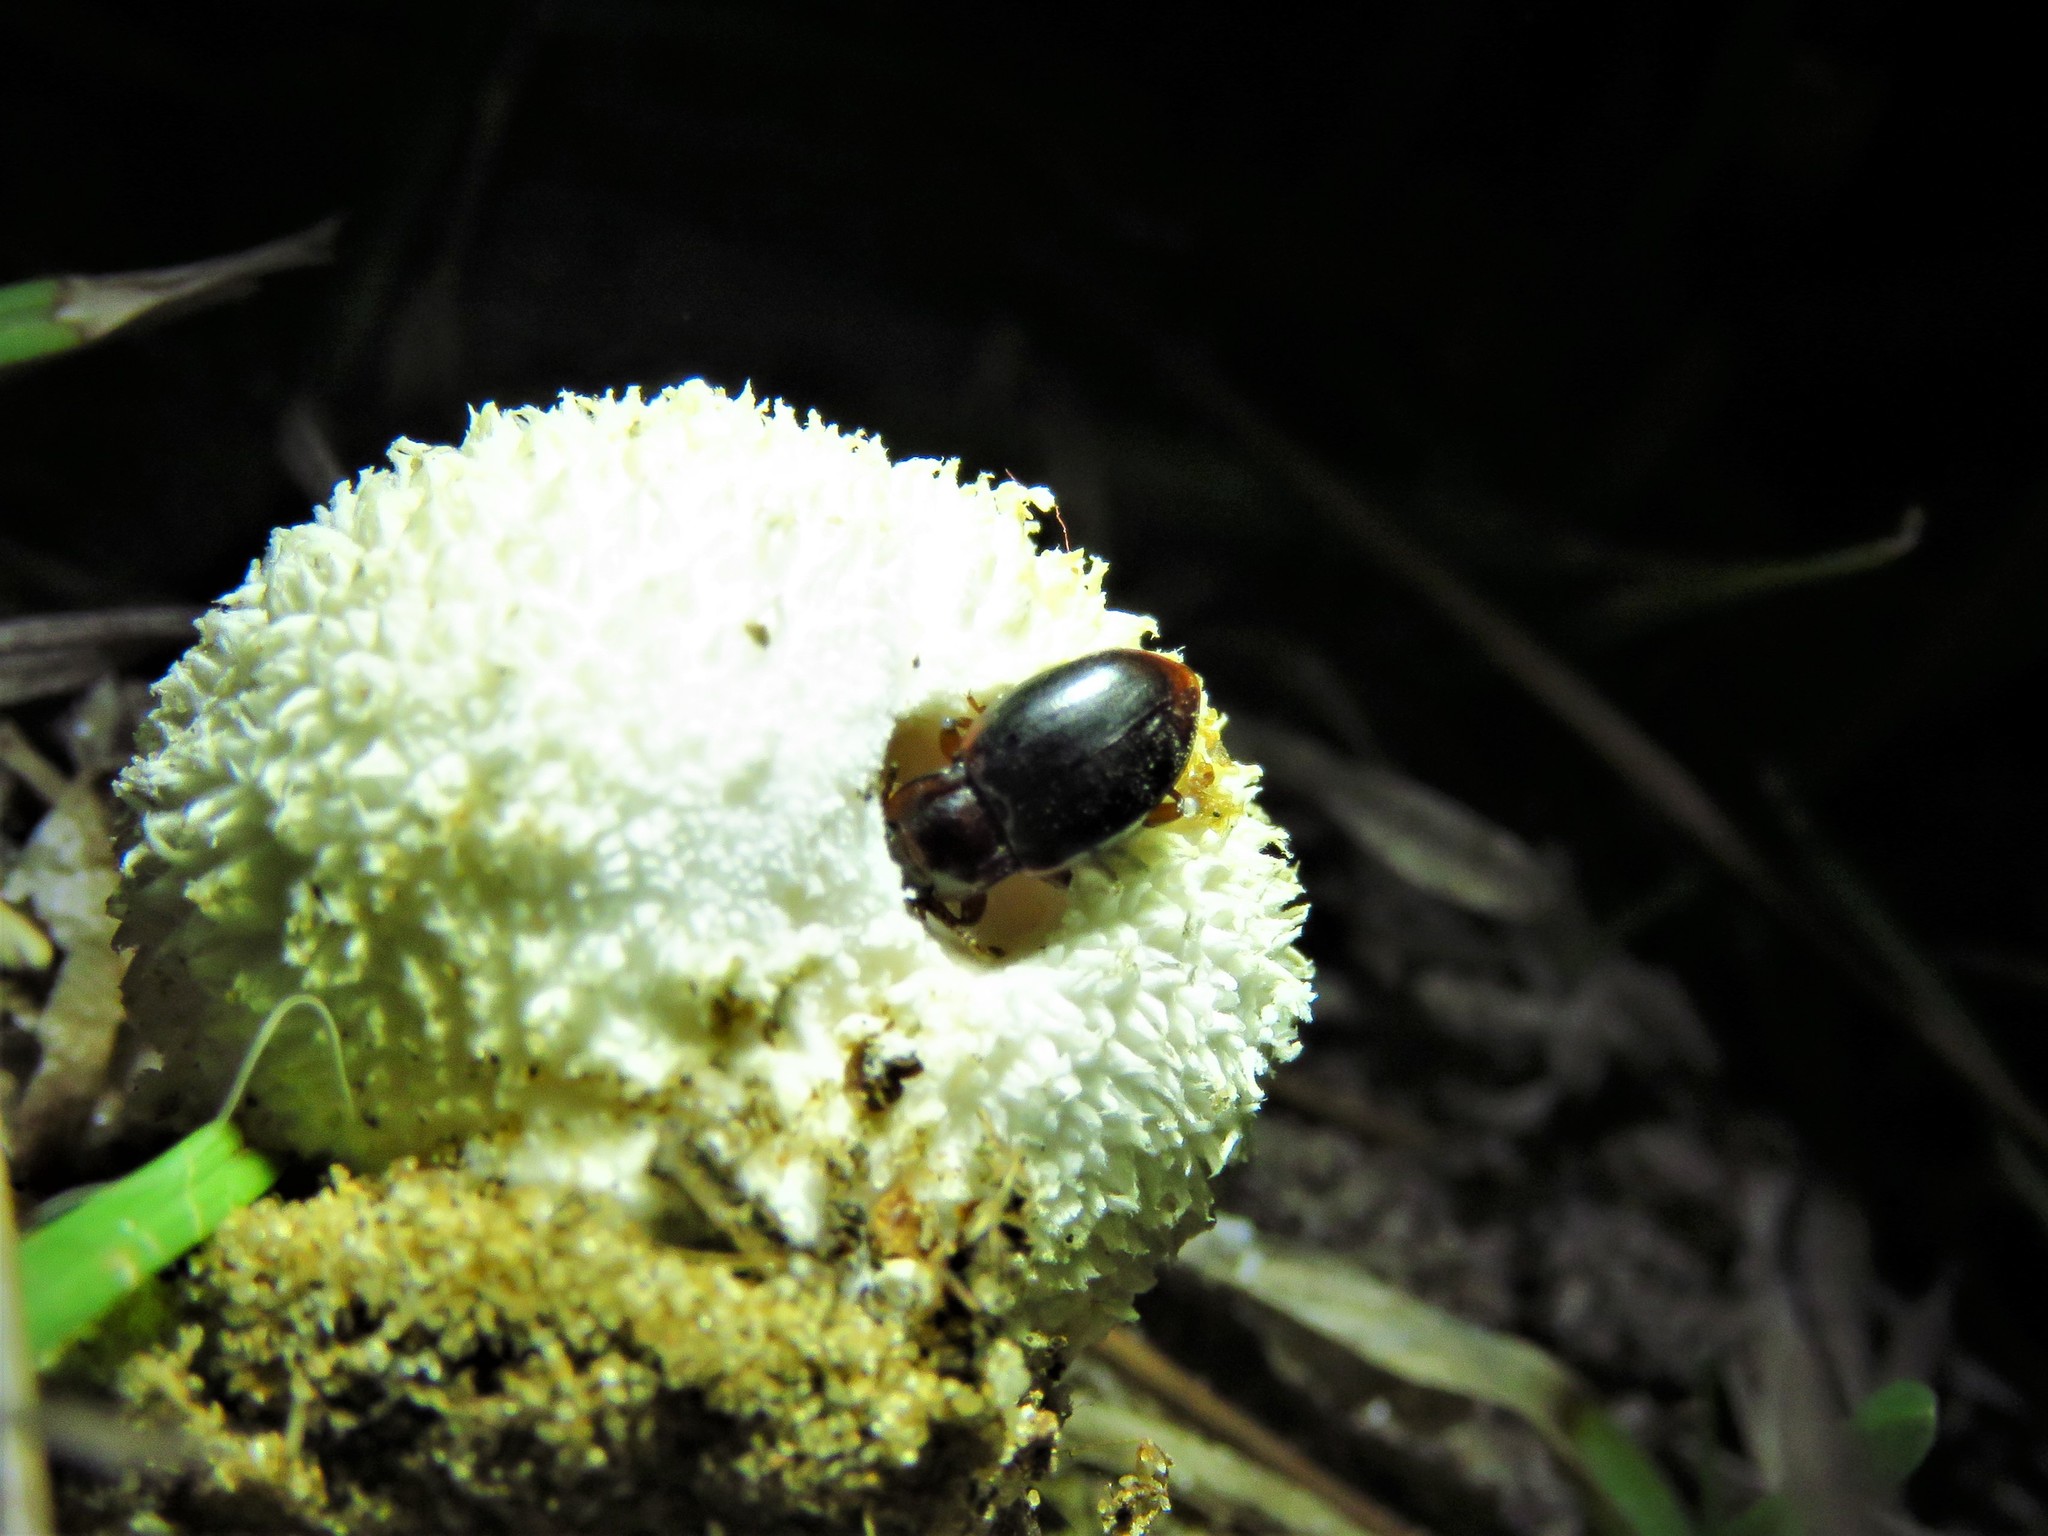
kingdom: Animalia
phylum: Arthropoda
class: Insecta
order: Coleoptera
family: Endomychidae
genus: Lycoperdina
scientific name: Lycoperdina ferruginea
